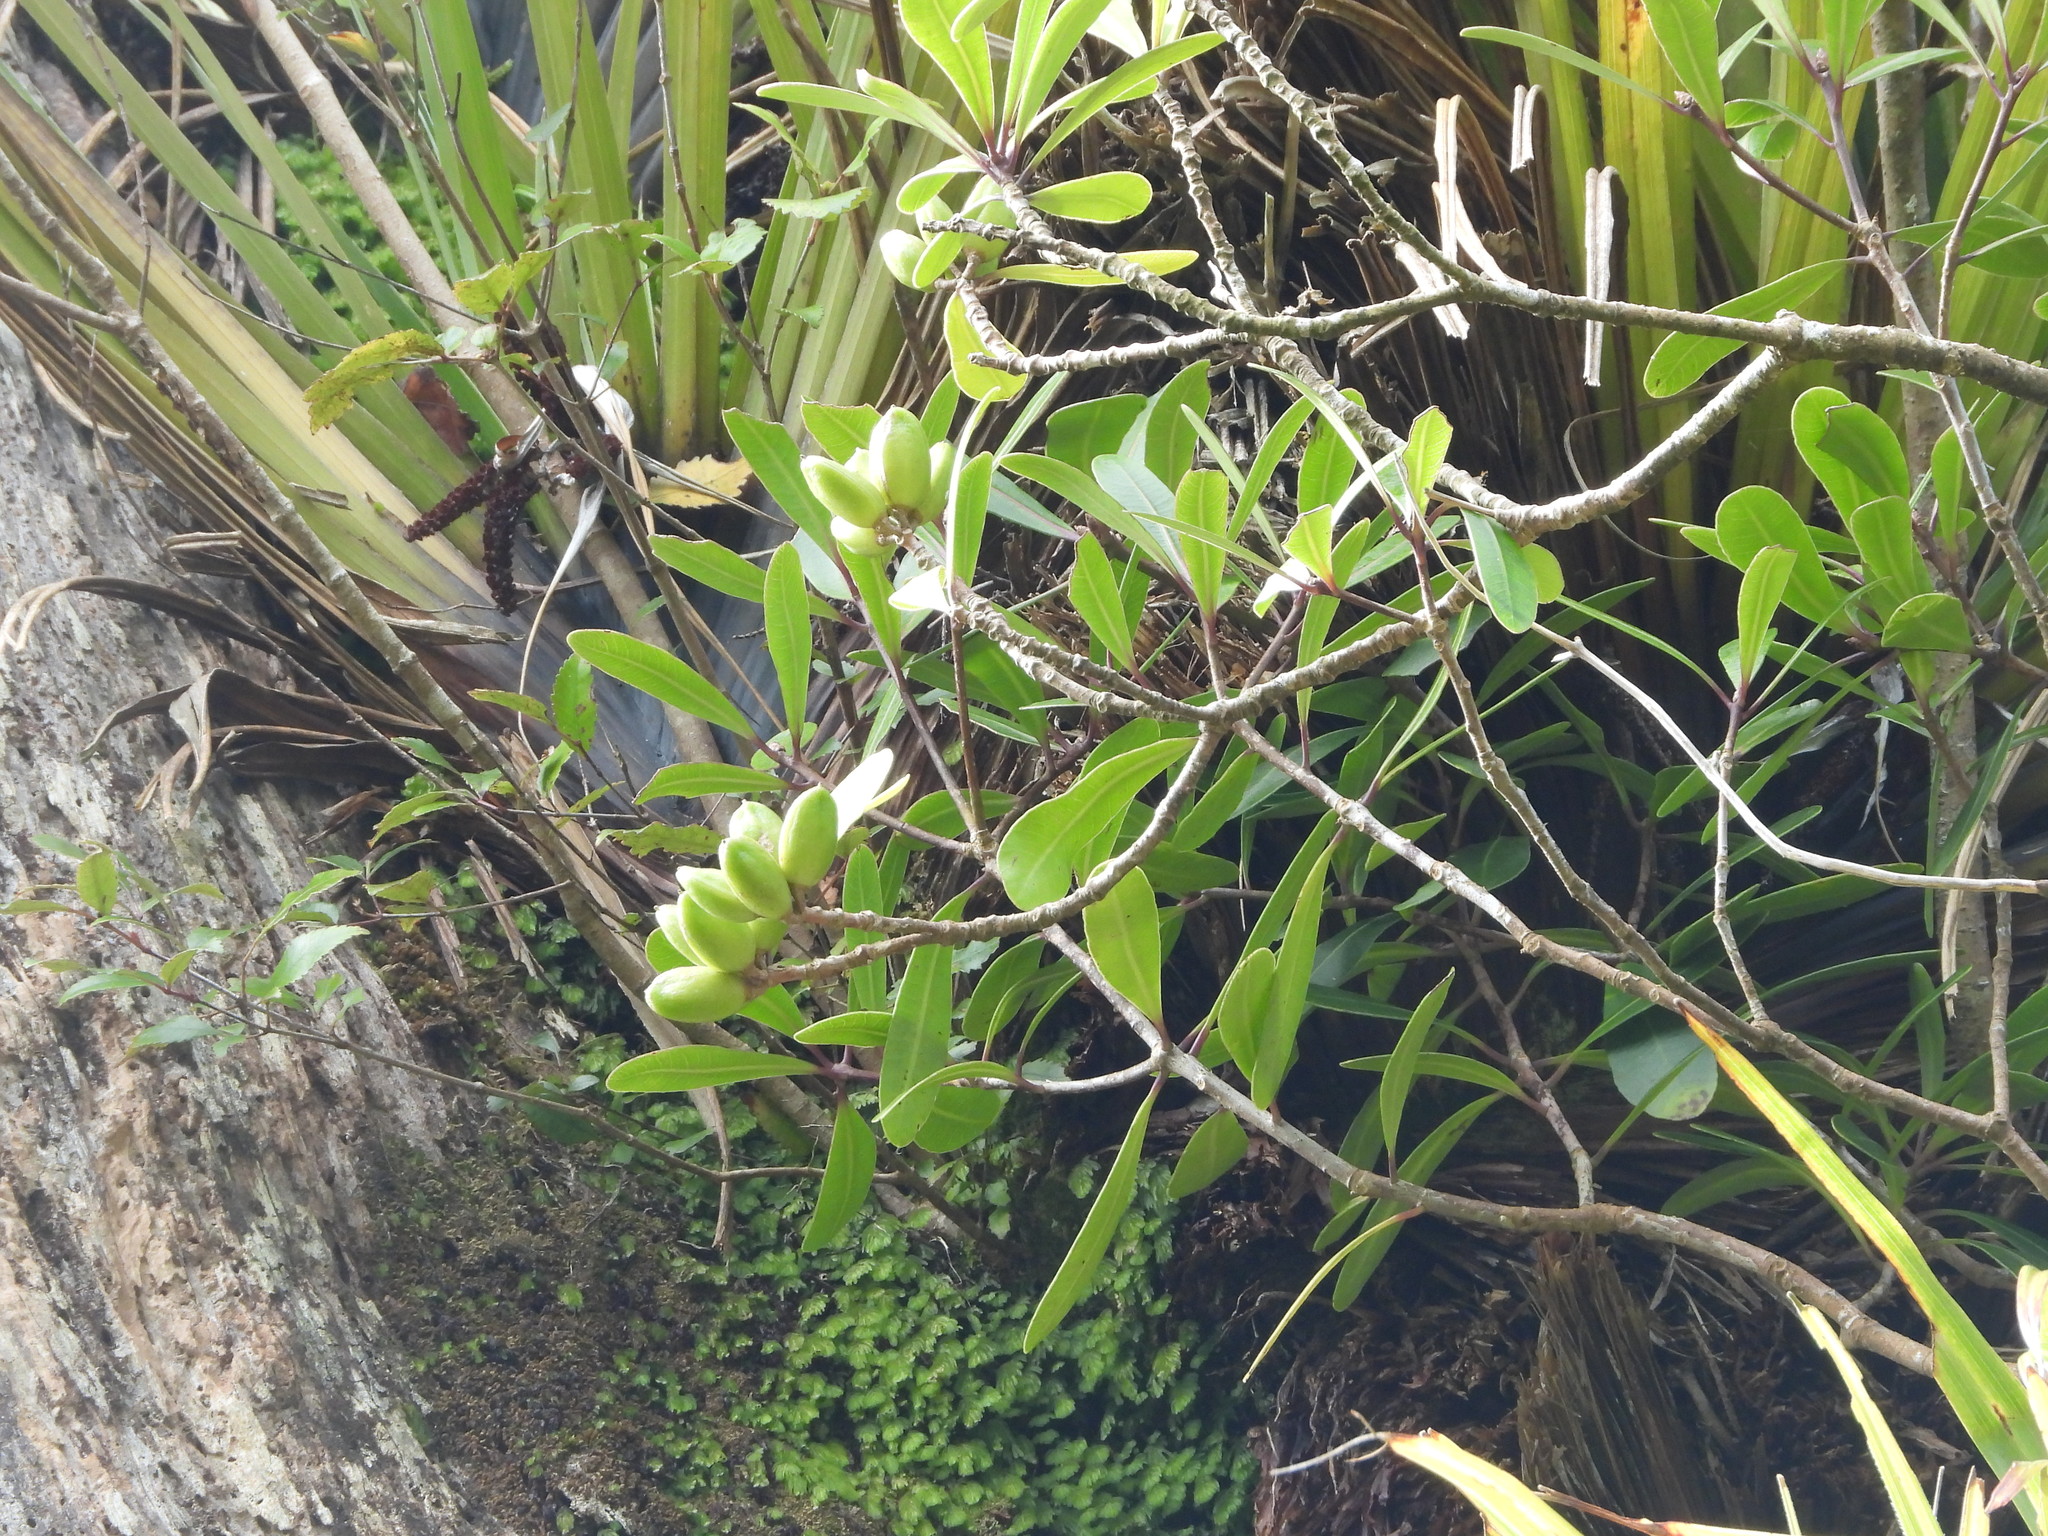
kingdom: Plantae
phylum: Tracheophyta
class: Magnoliopsida
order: Apiales
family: Pittosporaceae
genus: Pittosporum
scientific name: Pittosporum kirkii
